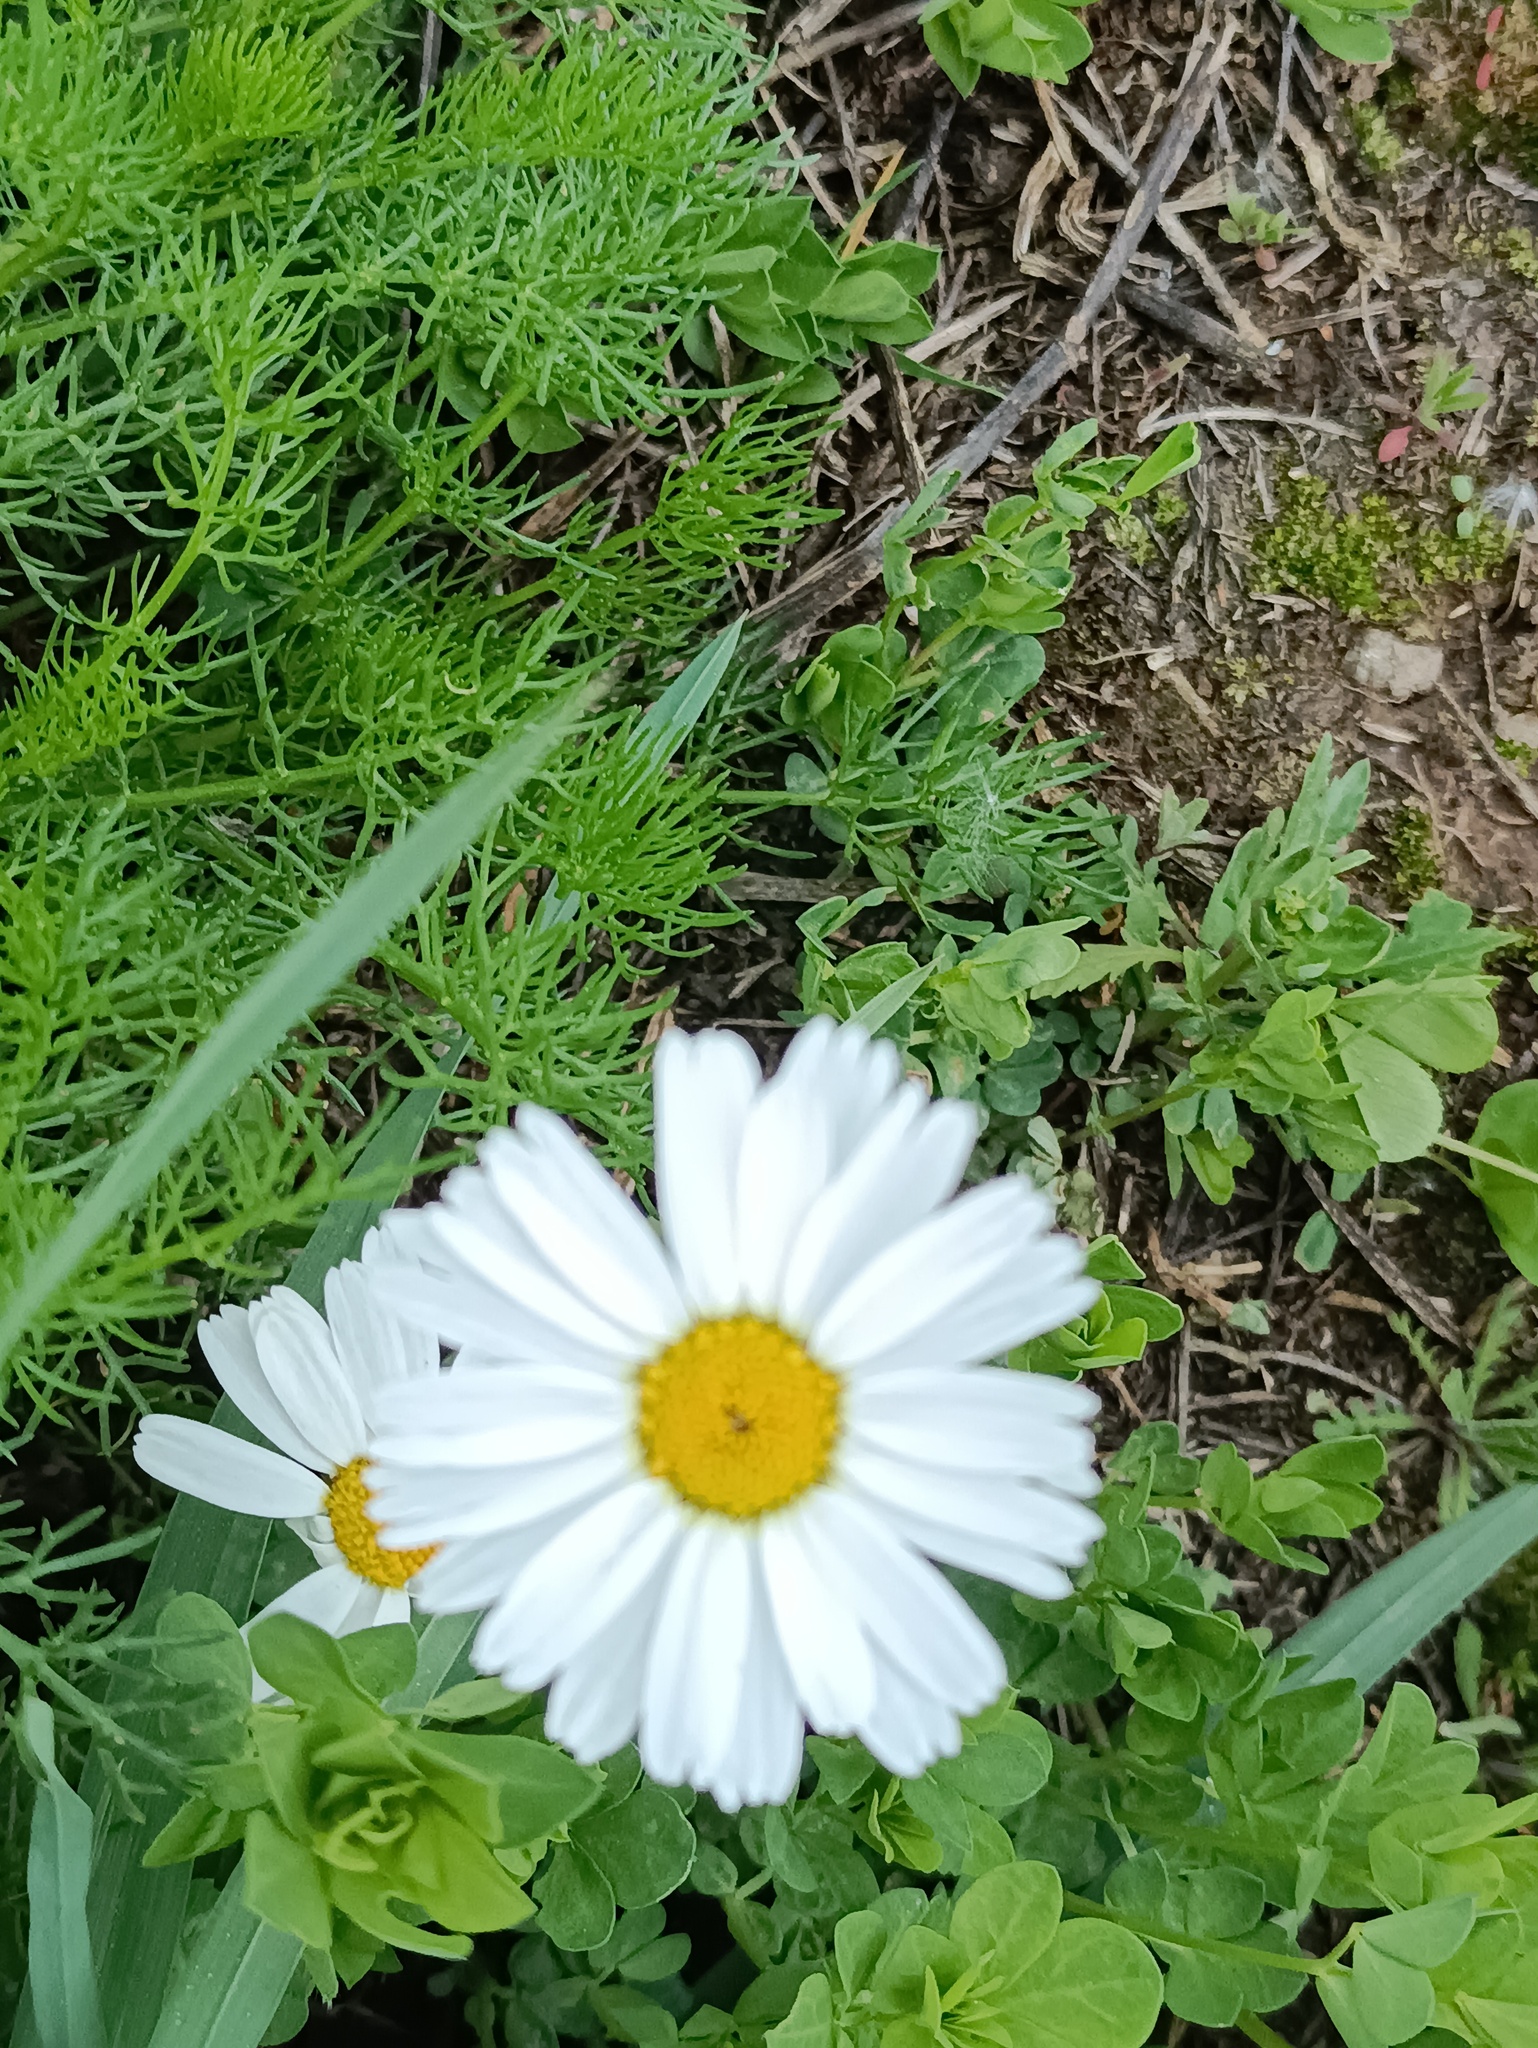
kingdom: Plantae
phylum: Tracheophyta
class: Magnoliopsida
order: Asterales
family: Asteraceae
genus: Tripleurospermum
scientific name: Tripleurospermum inodorum
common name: Scentless mayweed
